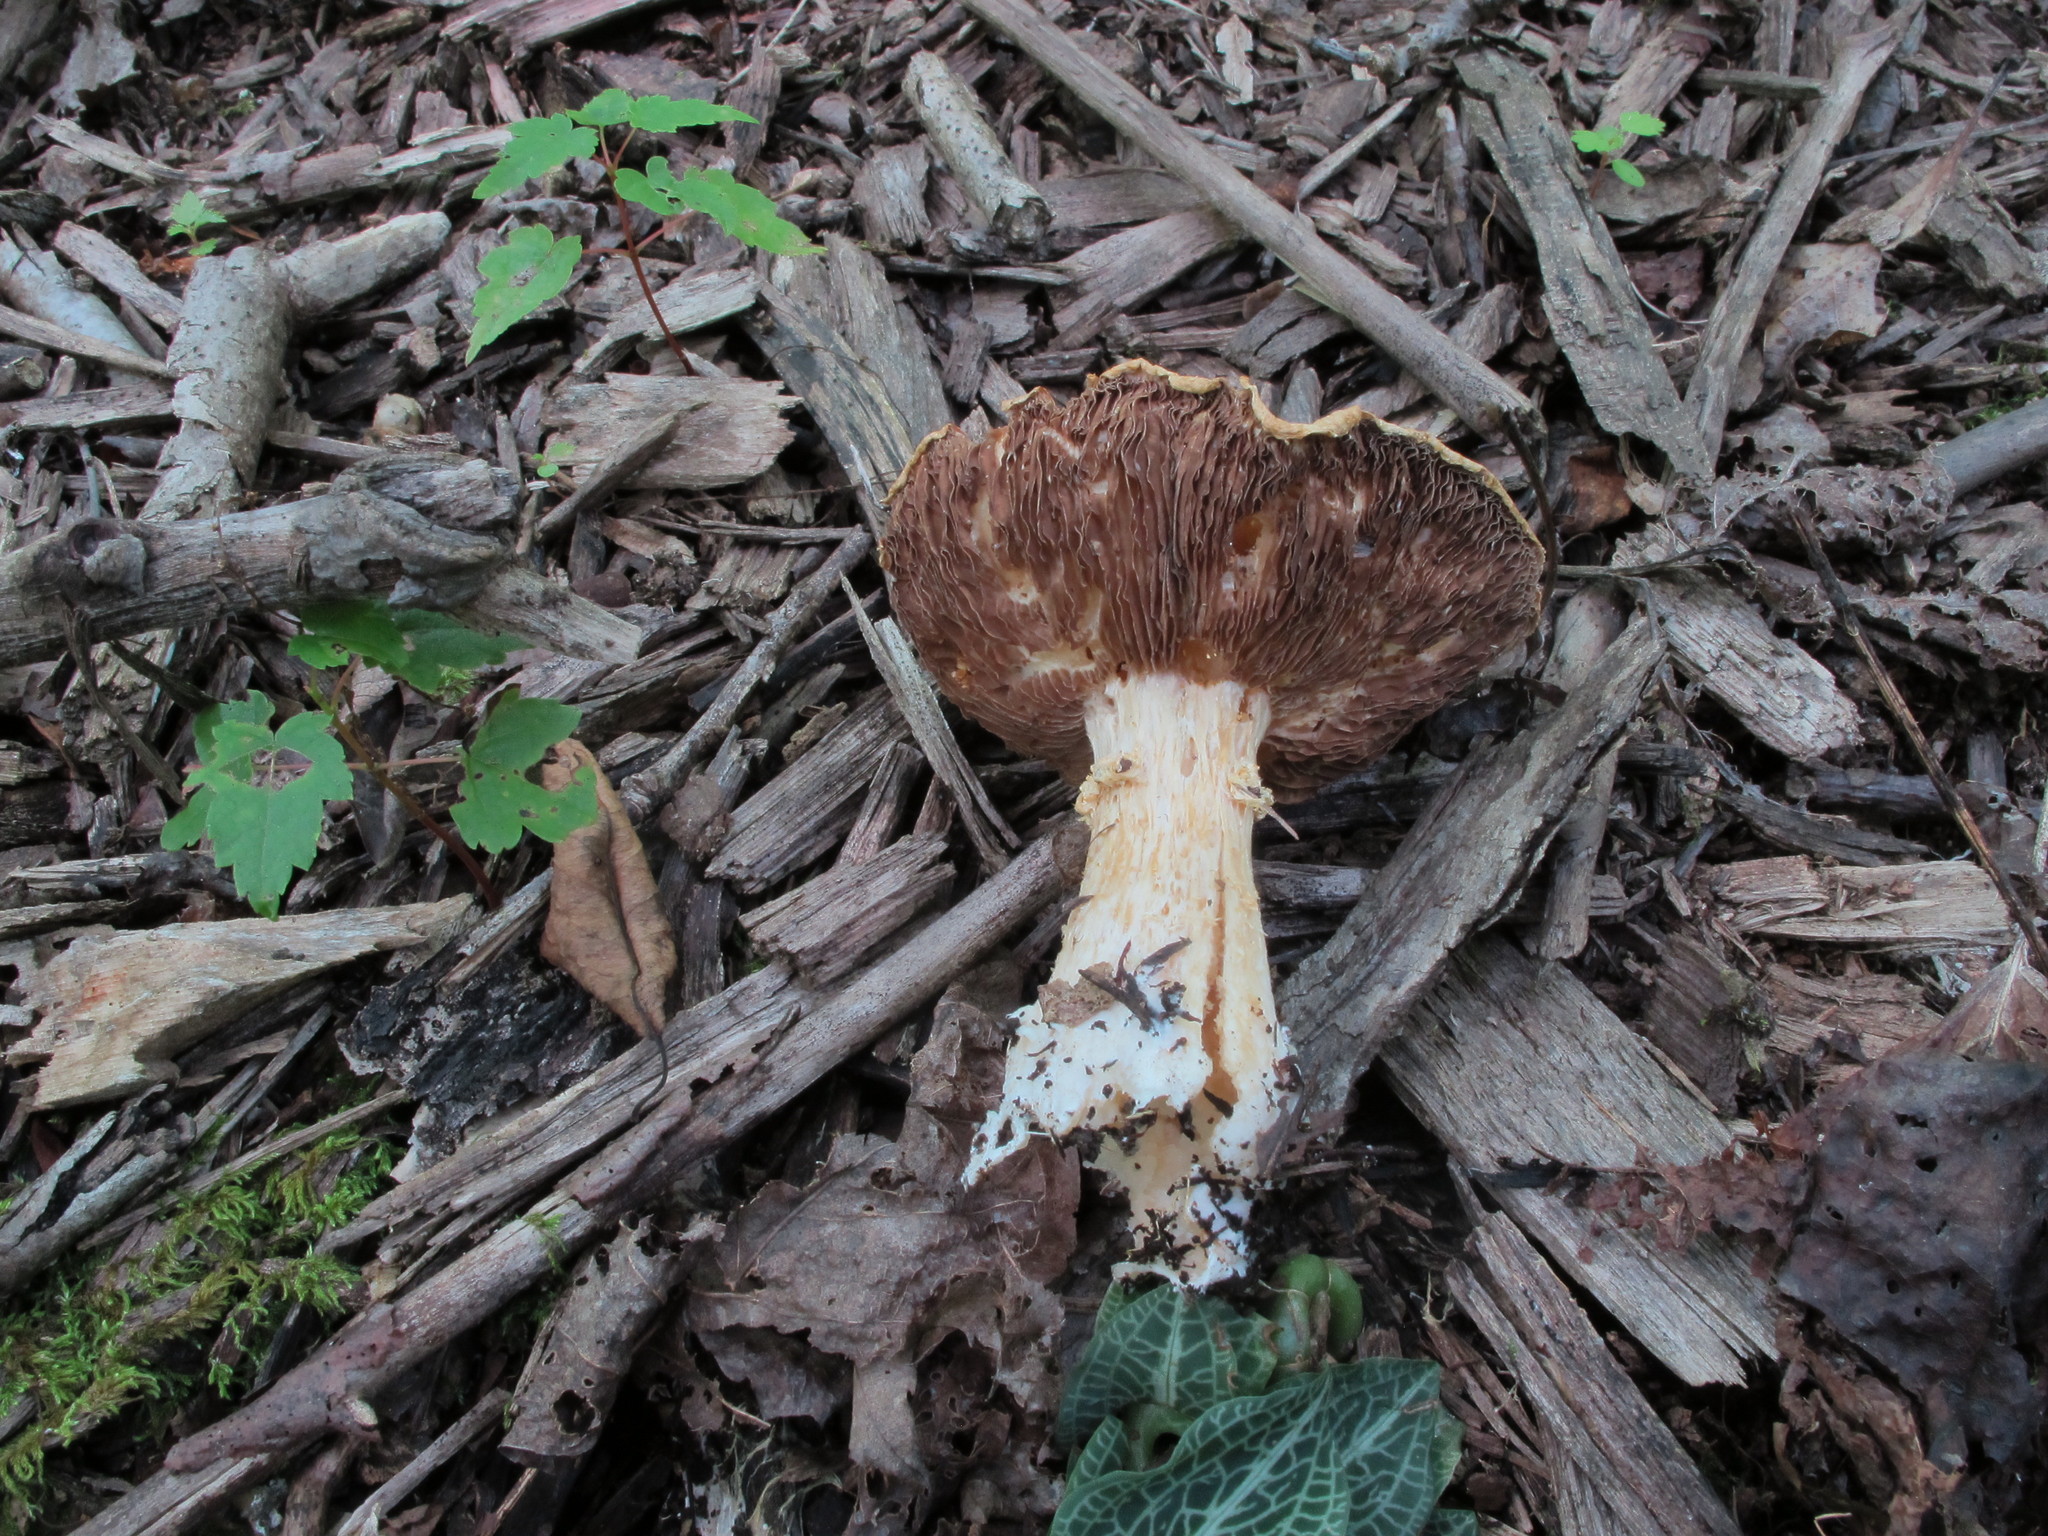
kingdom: Fungi
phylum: Basidiomycota
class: Agaricomycetes
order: Agaricales
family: Strophariaceae
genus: Stropharia
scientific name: Stropharia hardii
